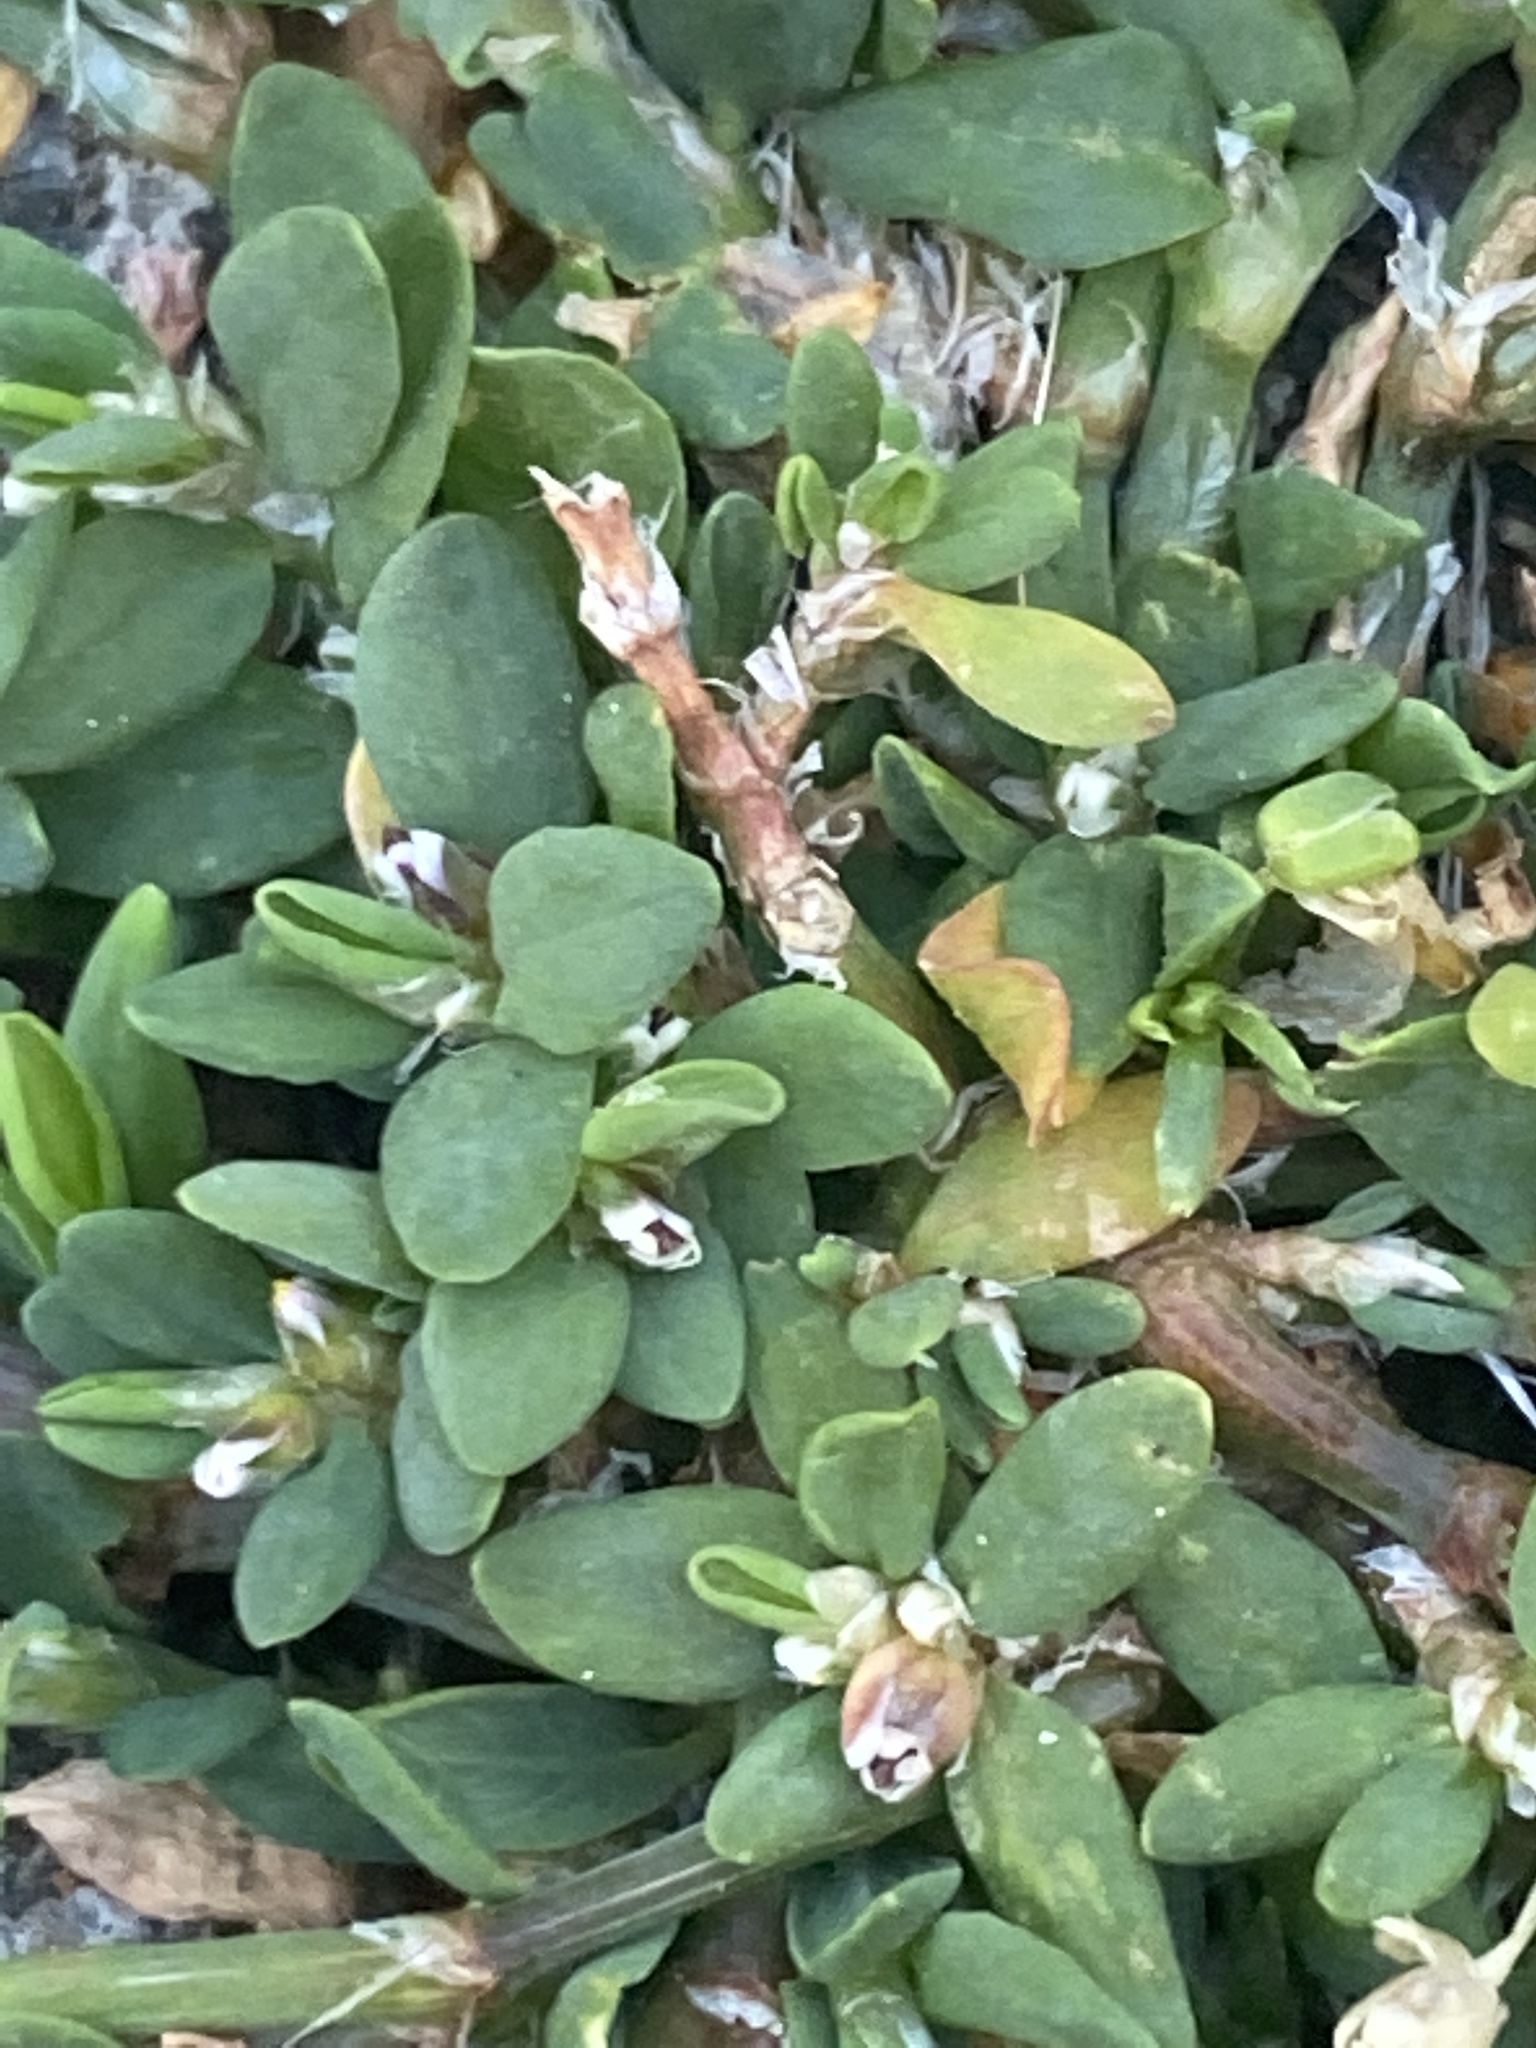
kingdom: Plantae
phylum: Tracheophyta
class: Magnoliopsida
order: Caryophyllales
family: Polygonaceae
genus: Polygonum
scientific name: Polygonum aviculare
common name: Prostrate knotweed
